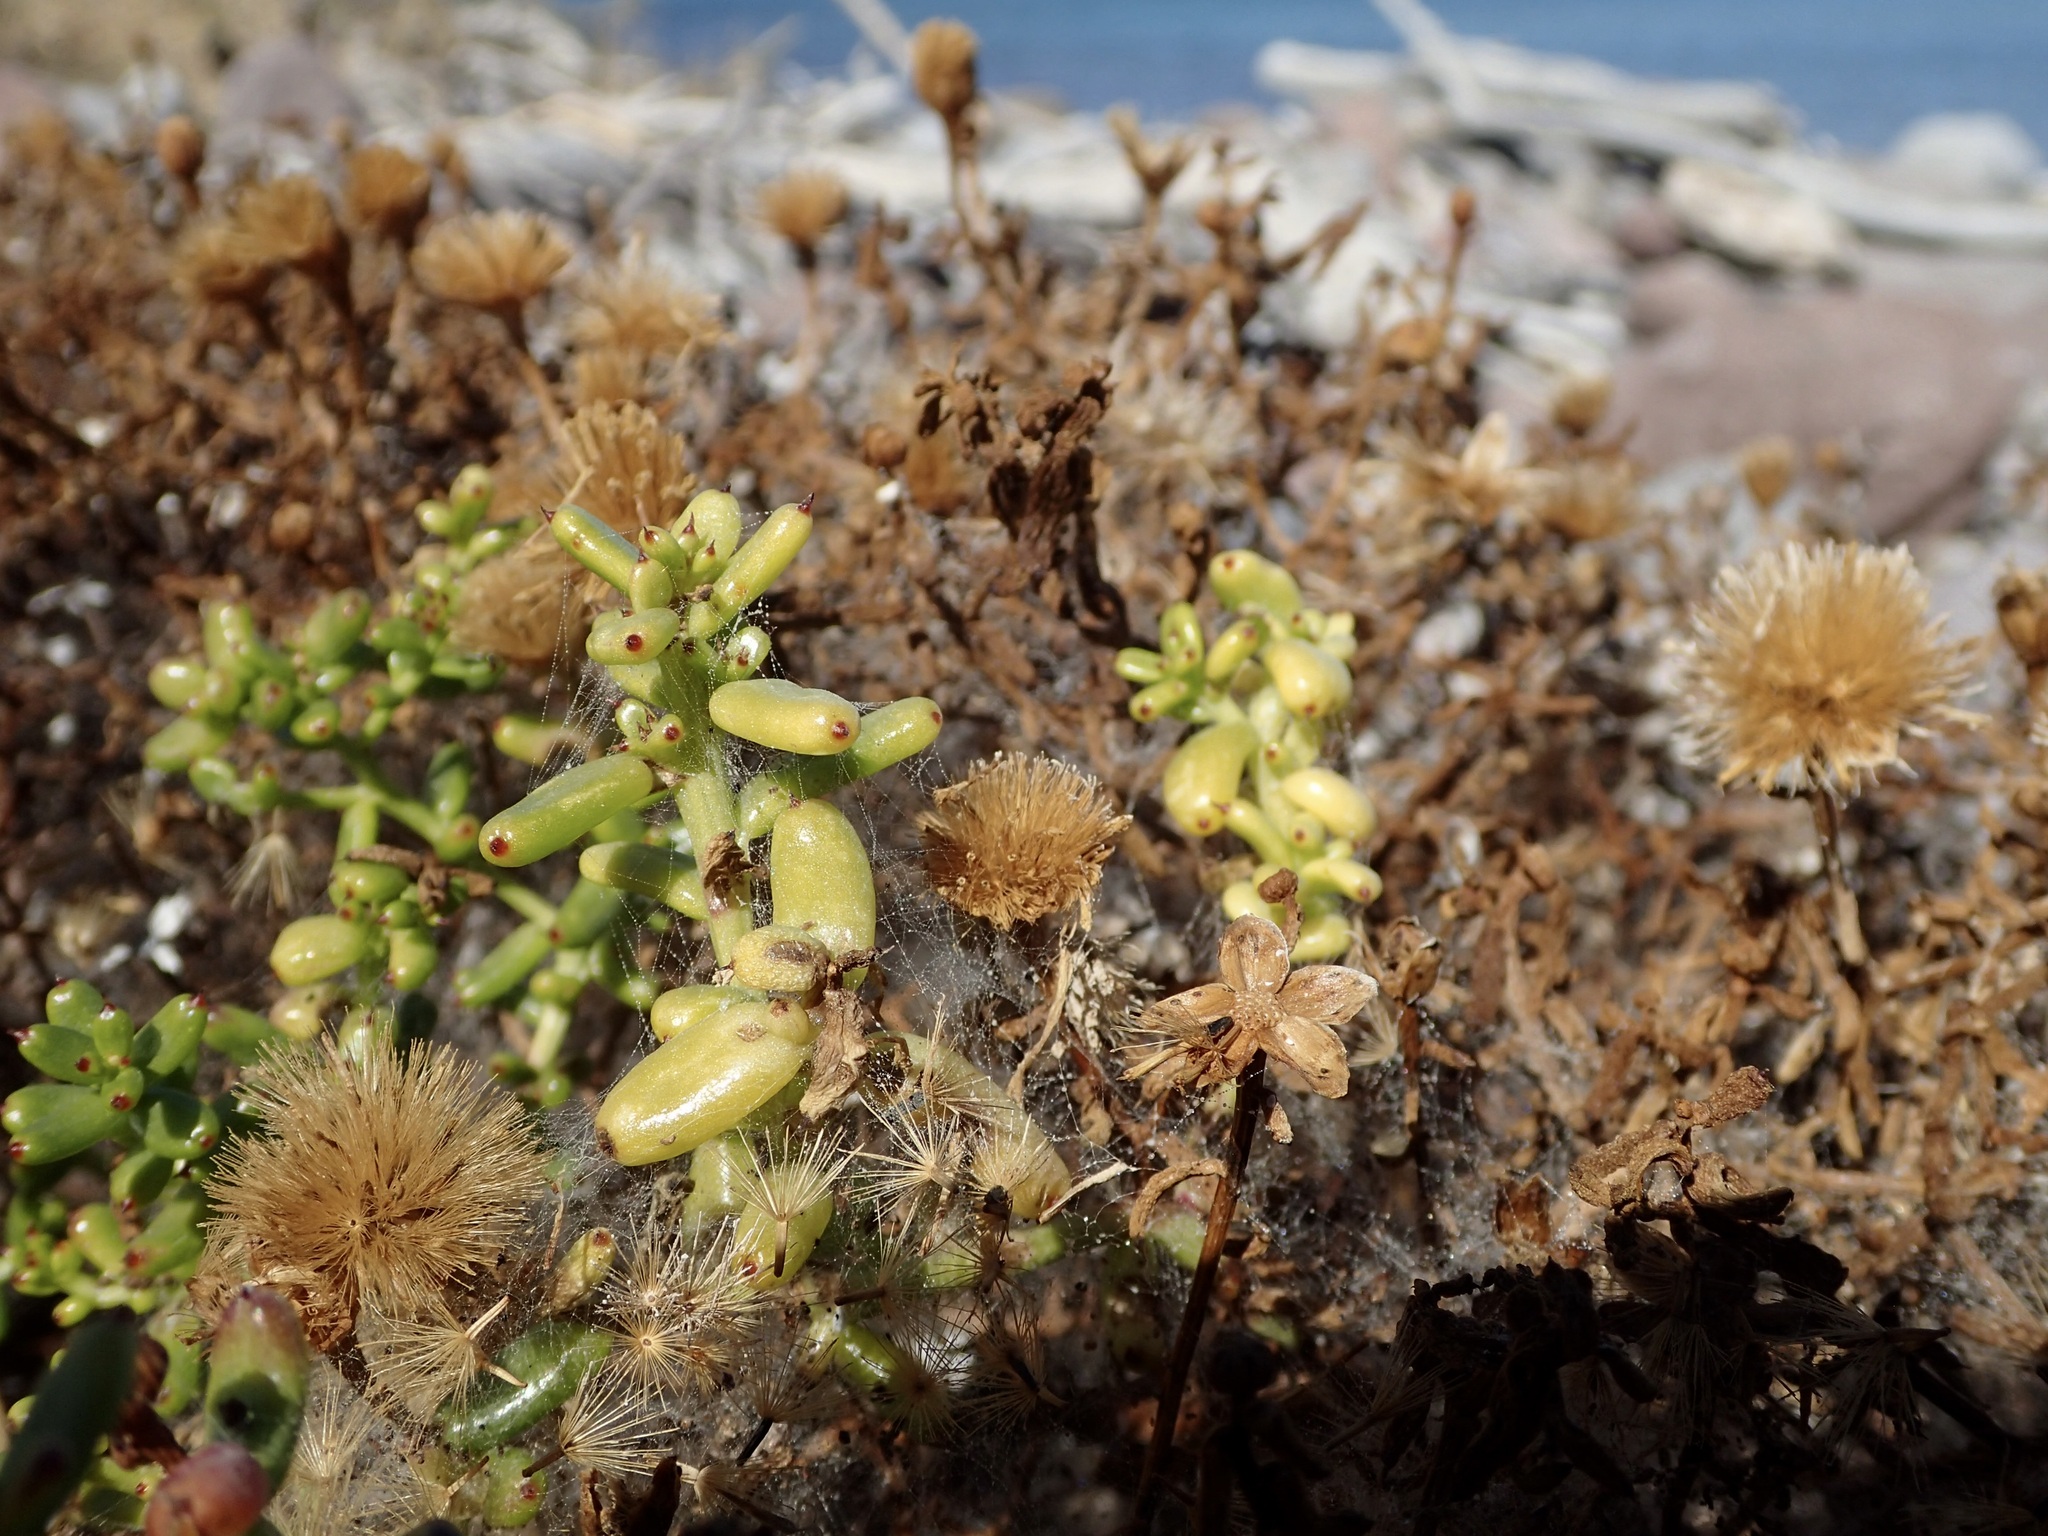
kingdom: Plantae
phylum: Tracheophyta
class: Magnoliopsida
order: Asterales
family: Asteraceae
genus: Bajacalia
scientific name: Bajacalia crassifolia
